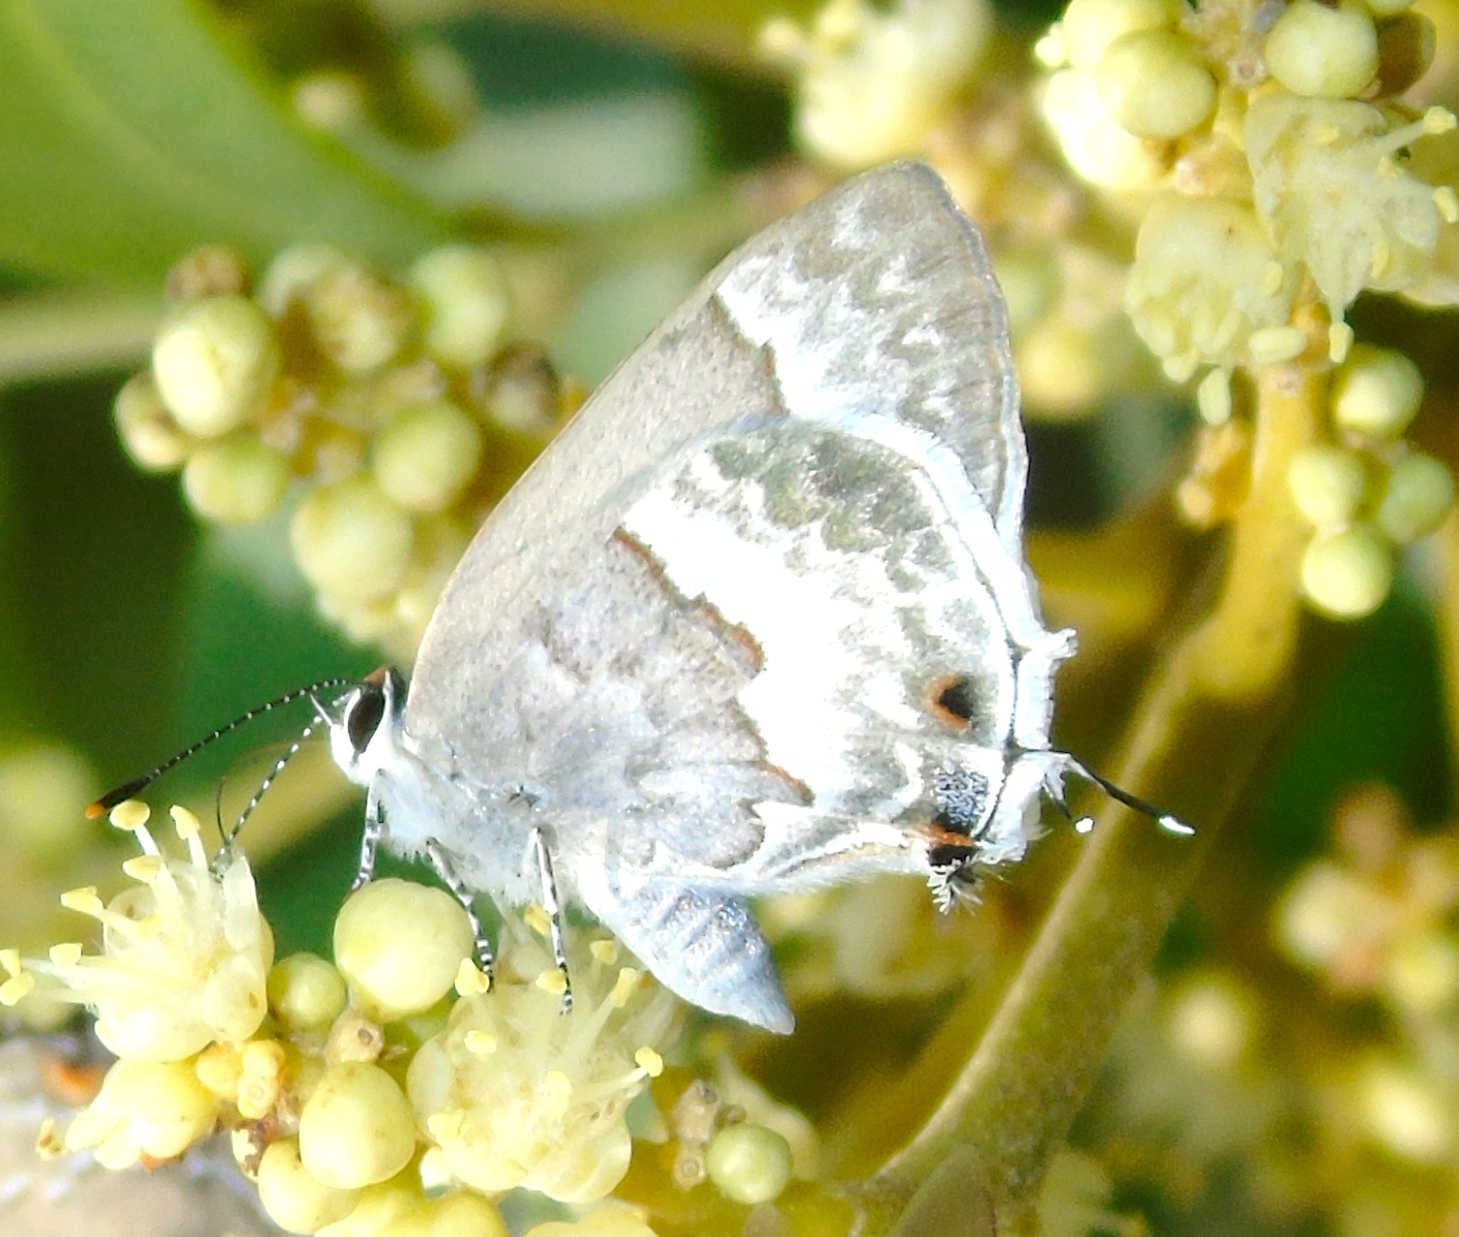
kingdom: Animalia
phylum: Arthropoda
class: Insecta
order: Lepidoptera
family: Lycaenidae
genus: Strymon
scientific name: Strymon albata
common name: White scrub-hairstreak
